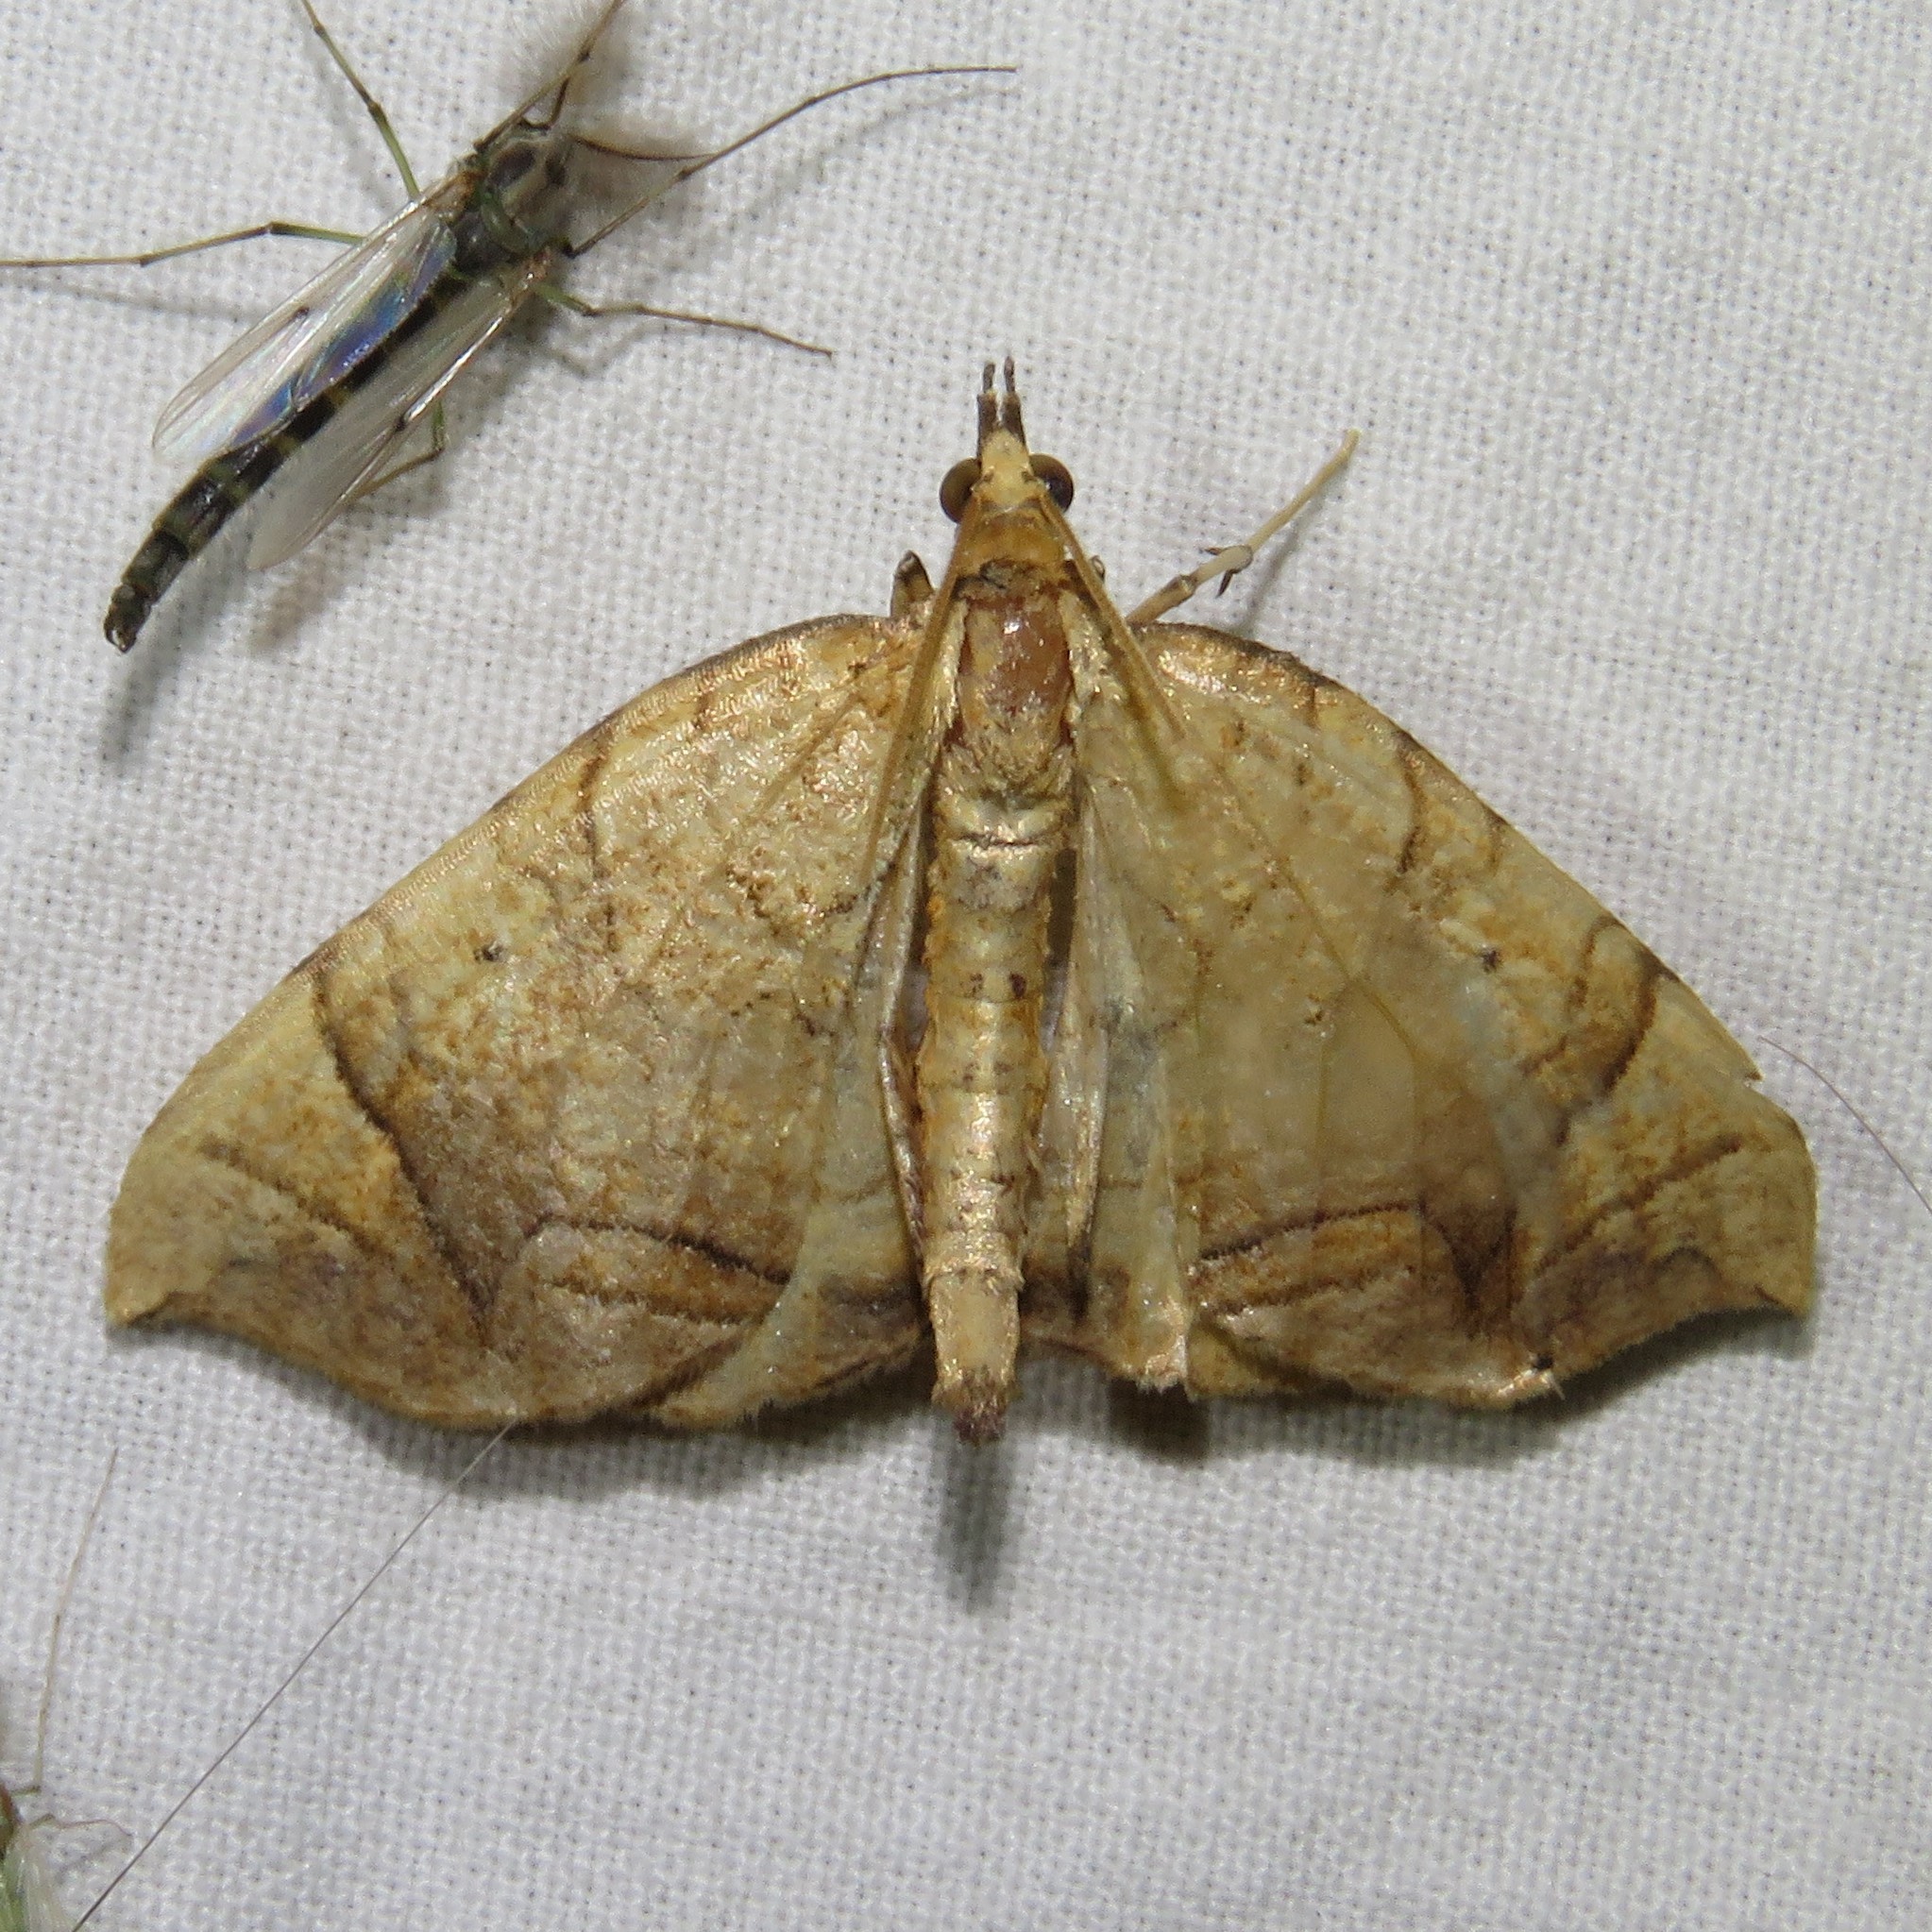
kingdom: Animalia
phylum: Arthropoda
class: Insecta
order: Lepidoptera
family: Geometridae
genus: Eulithis
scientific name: Eulithis
